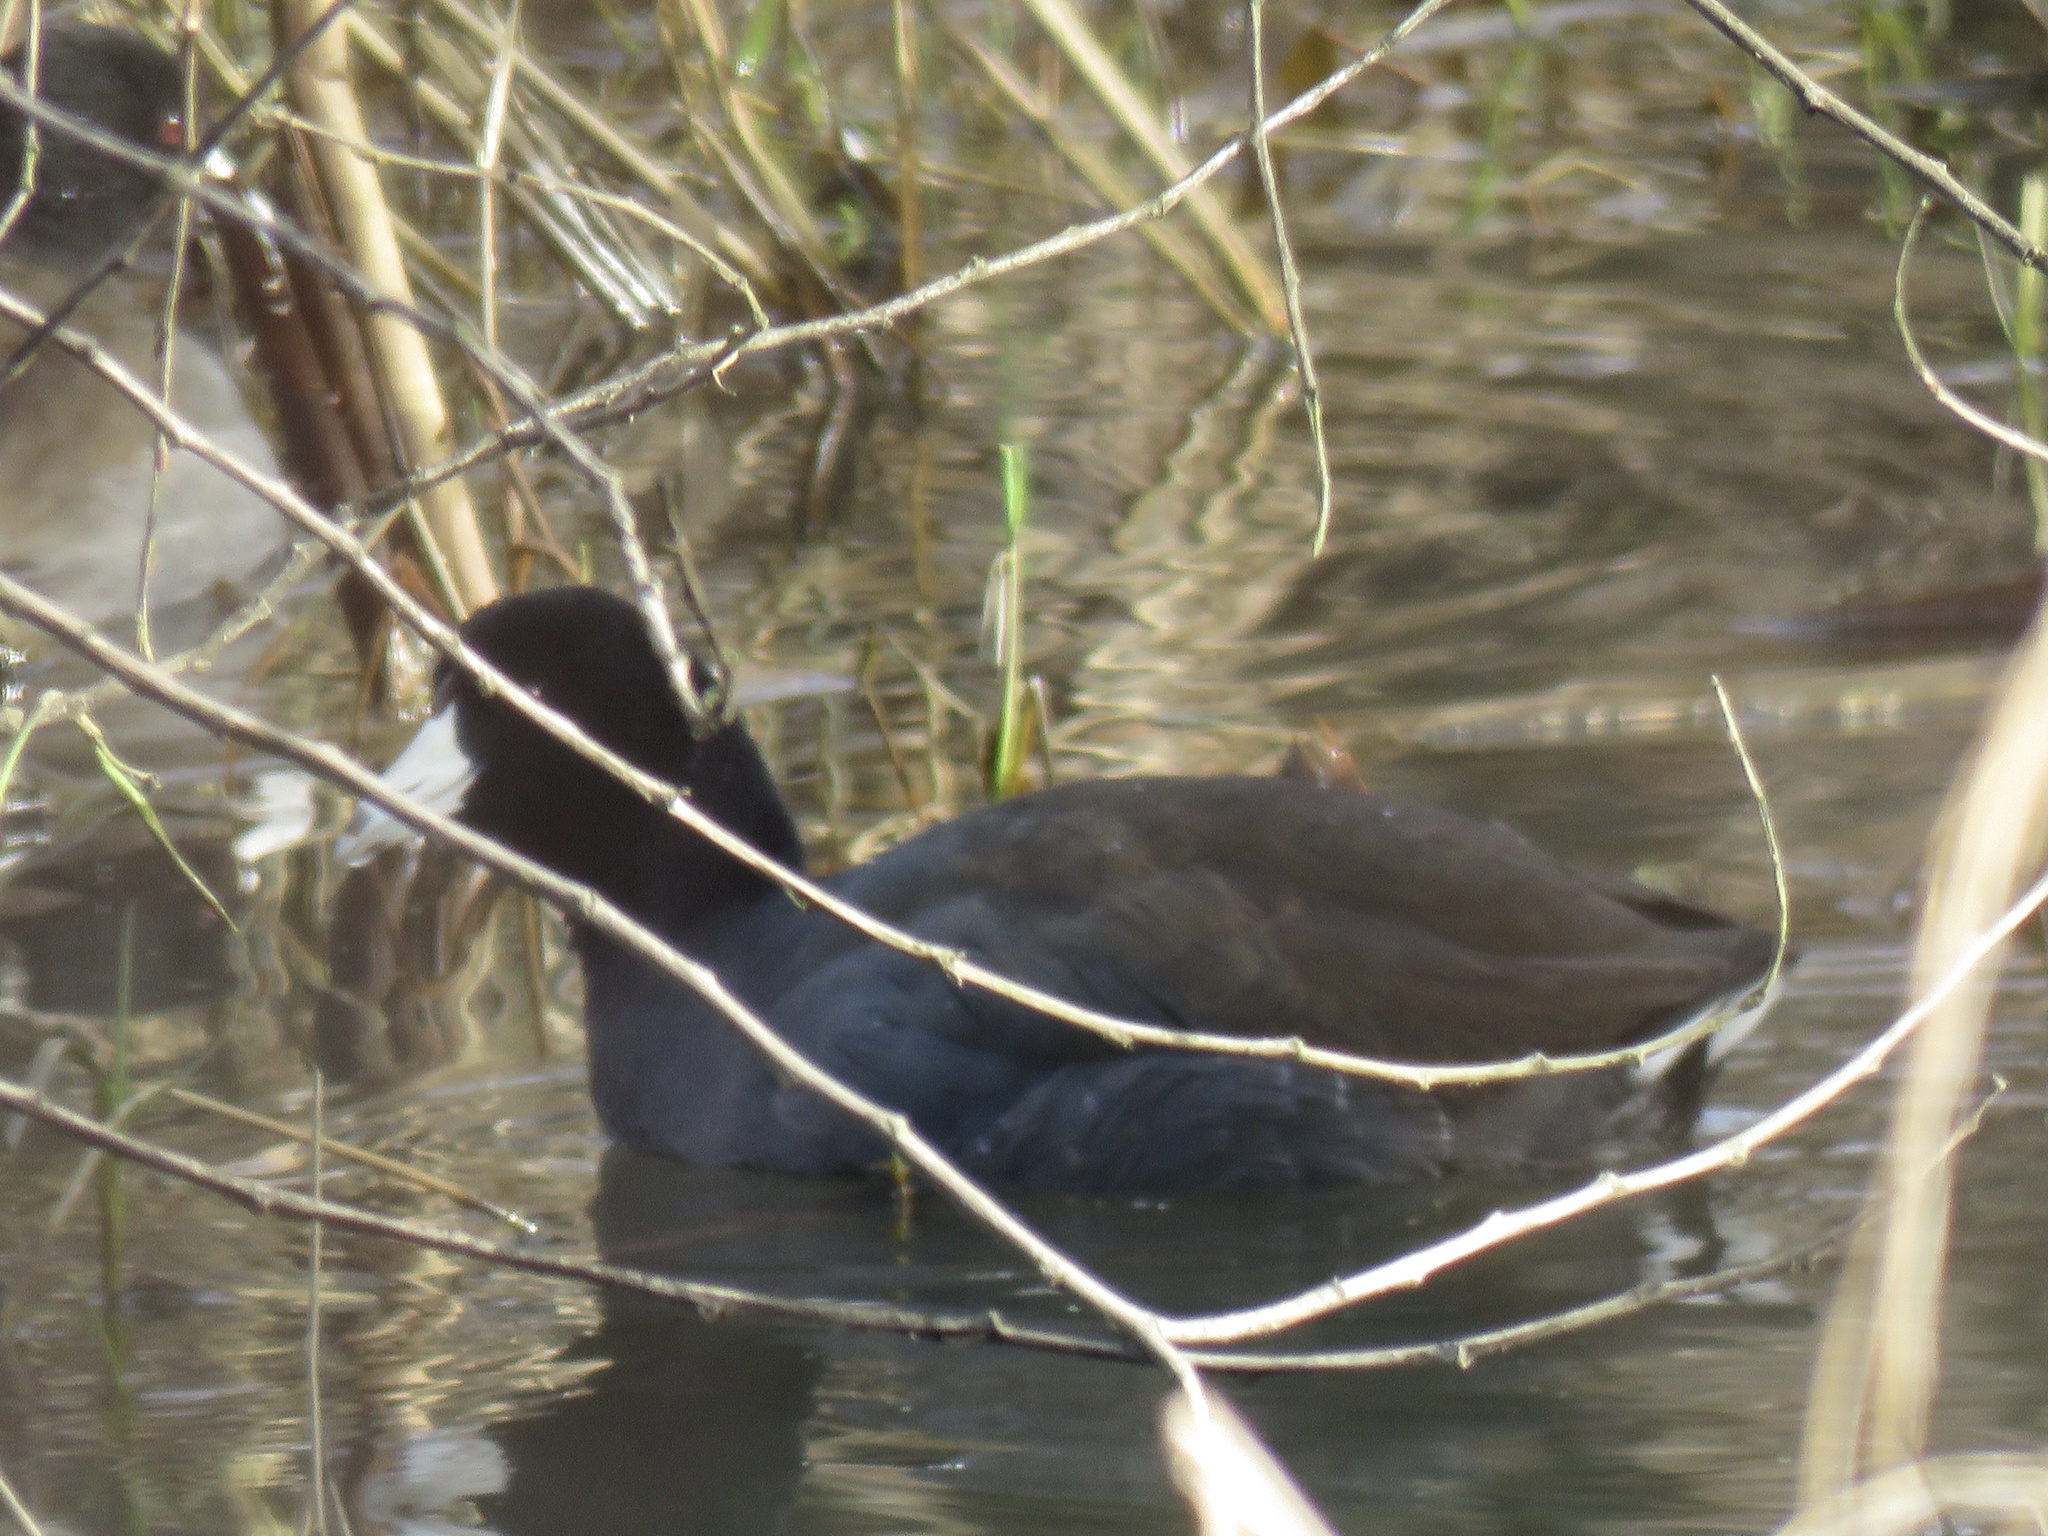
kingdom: Animalia
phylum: Chordata
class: Aves
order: Gruiformes
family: Rallidae
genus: Fulica
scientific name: Fulica americana
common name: American coot
